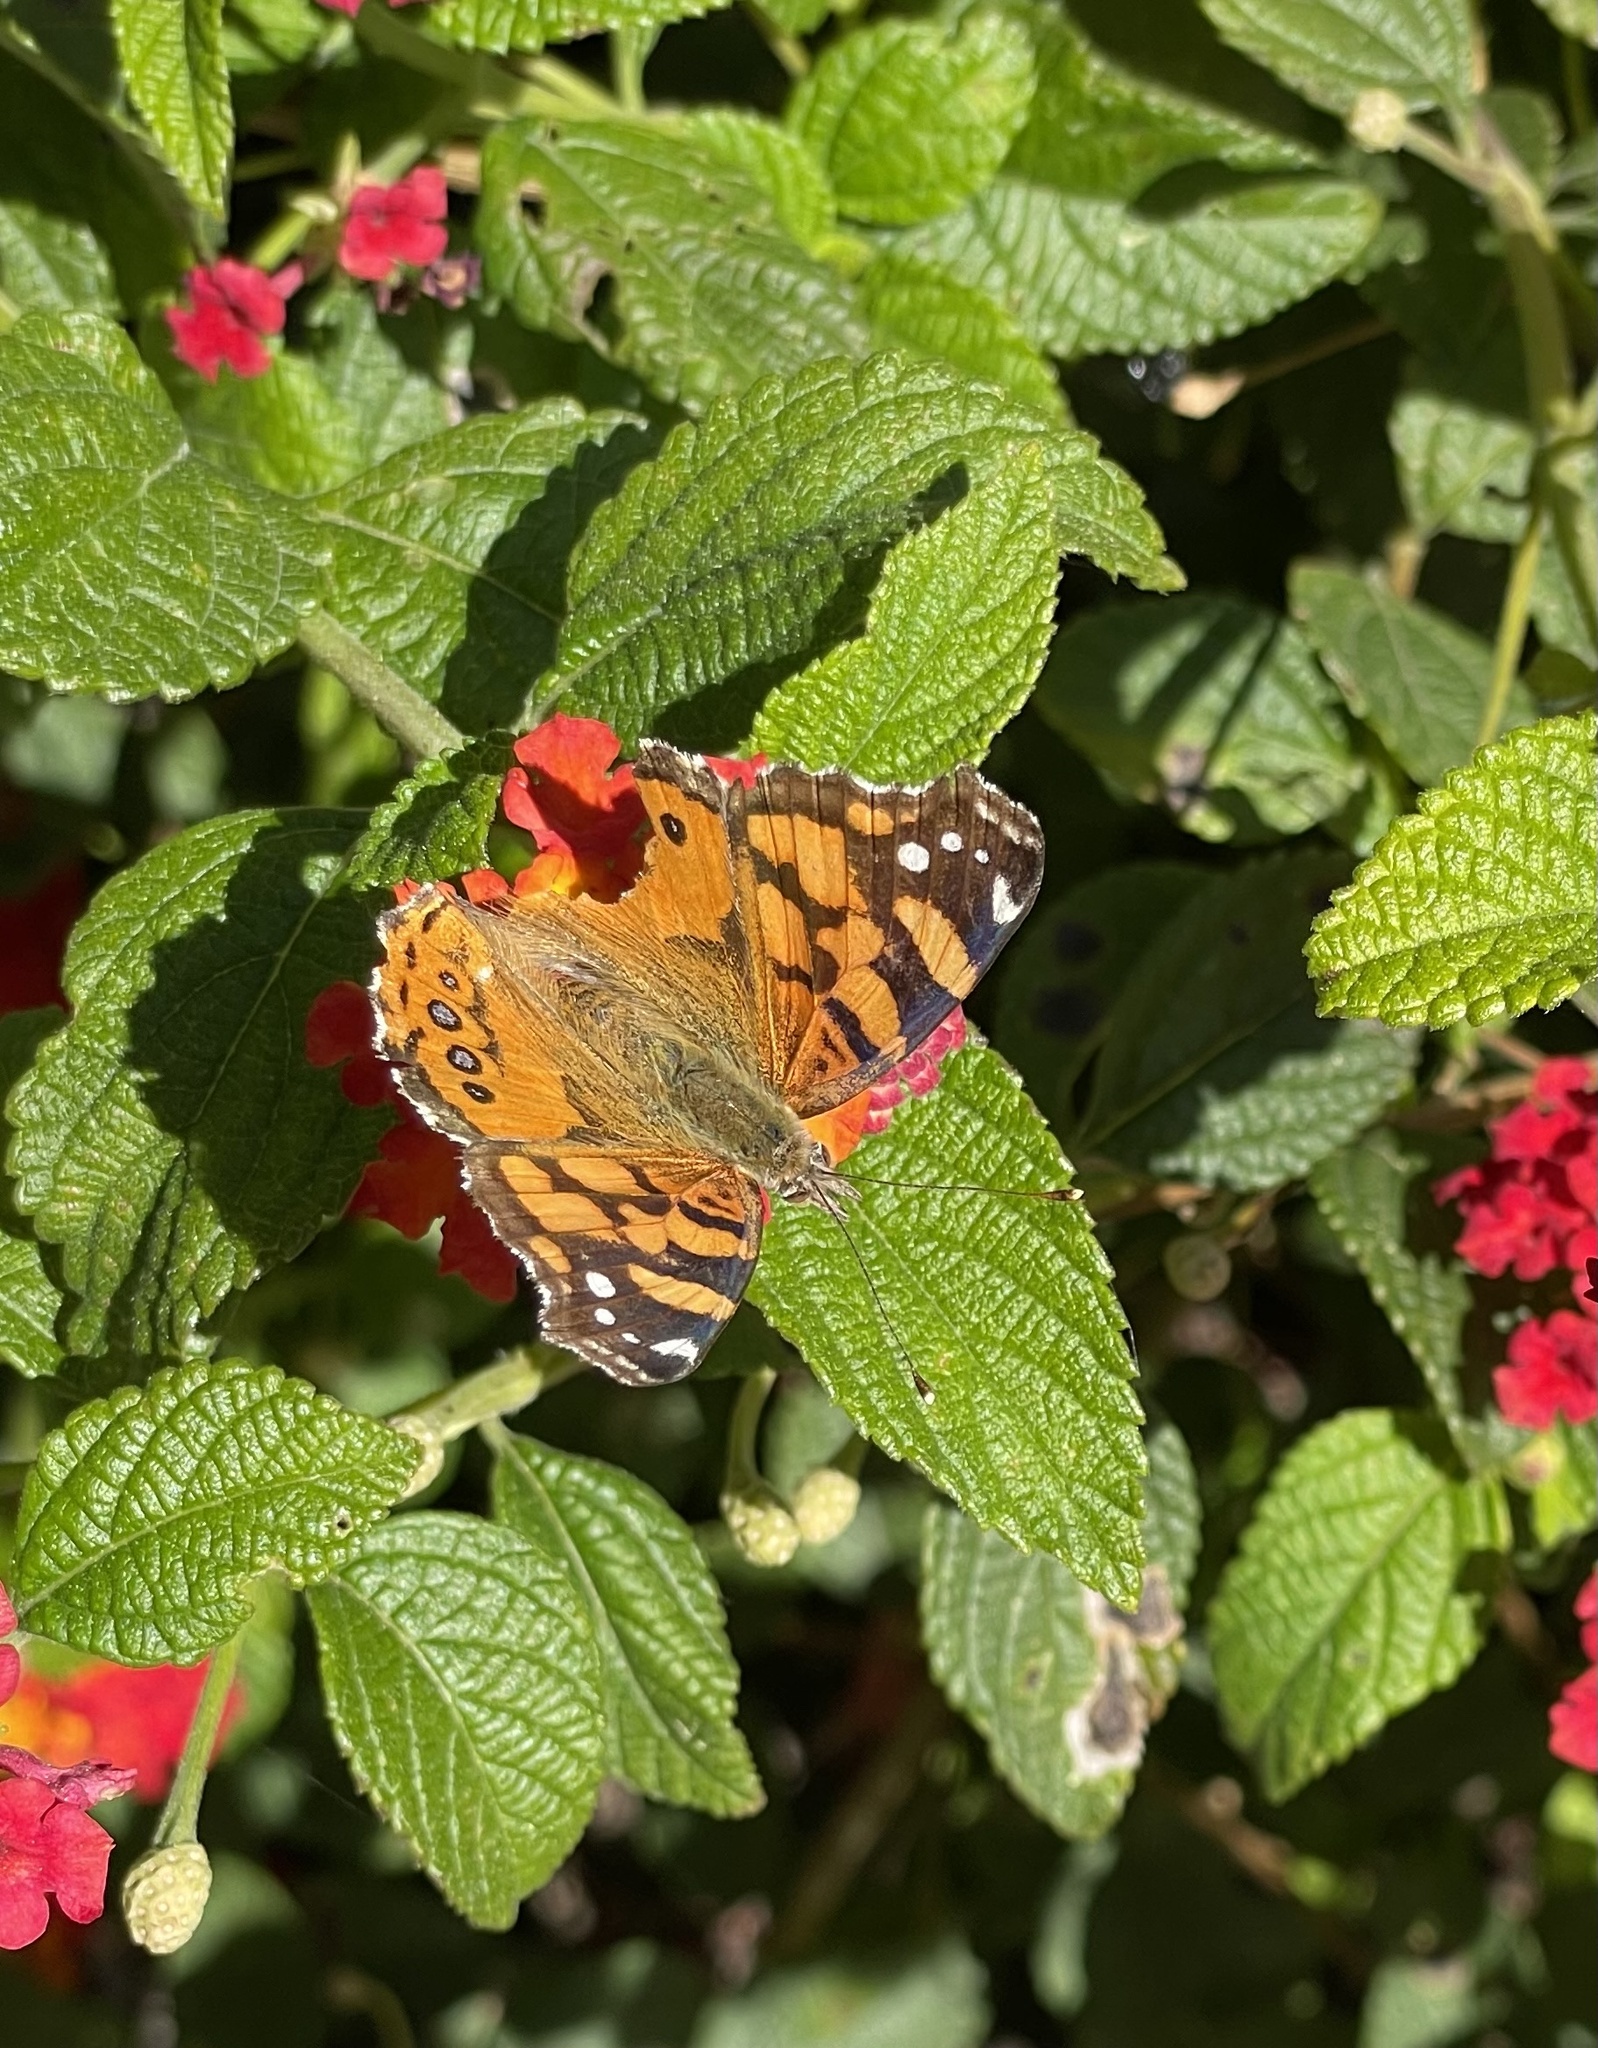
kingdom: Animalia
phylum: Arthropoda
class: Insecta
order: Lepidoptera
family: Nymphalidae
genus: Vanessa
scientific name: Vanessa annabella
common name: West coast lady
